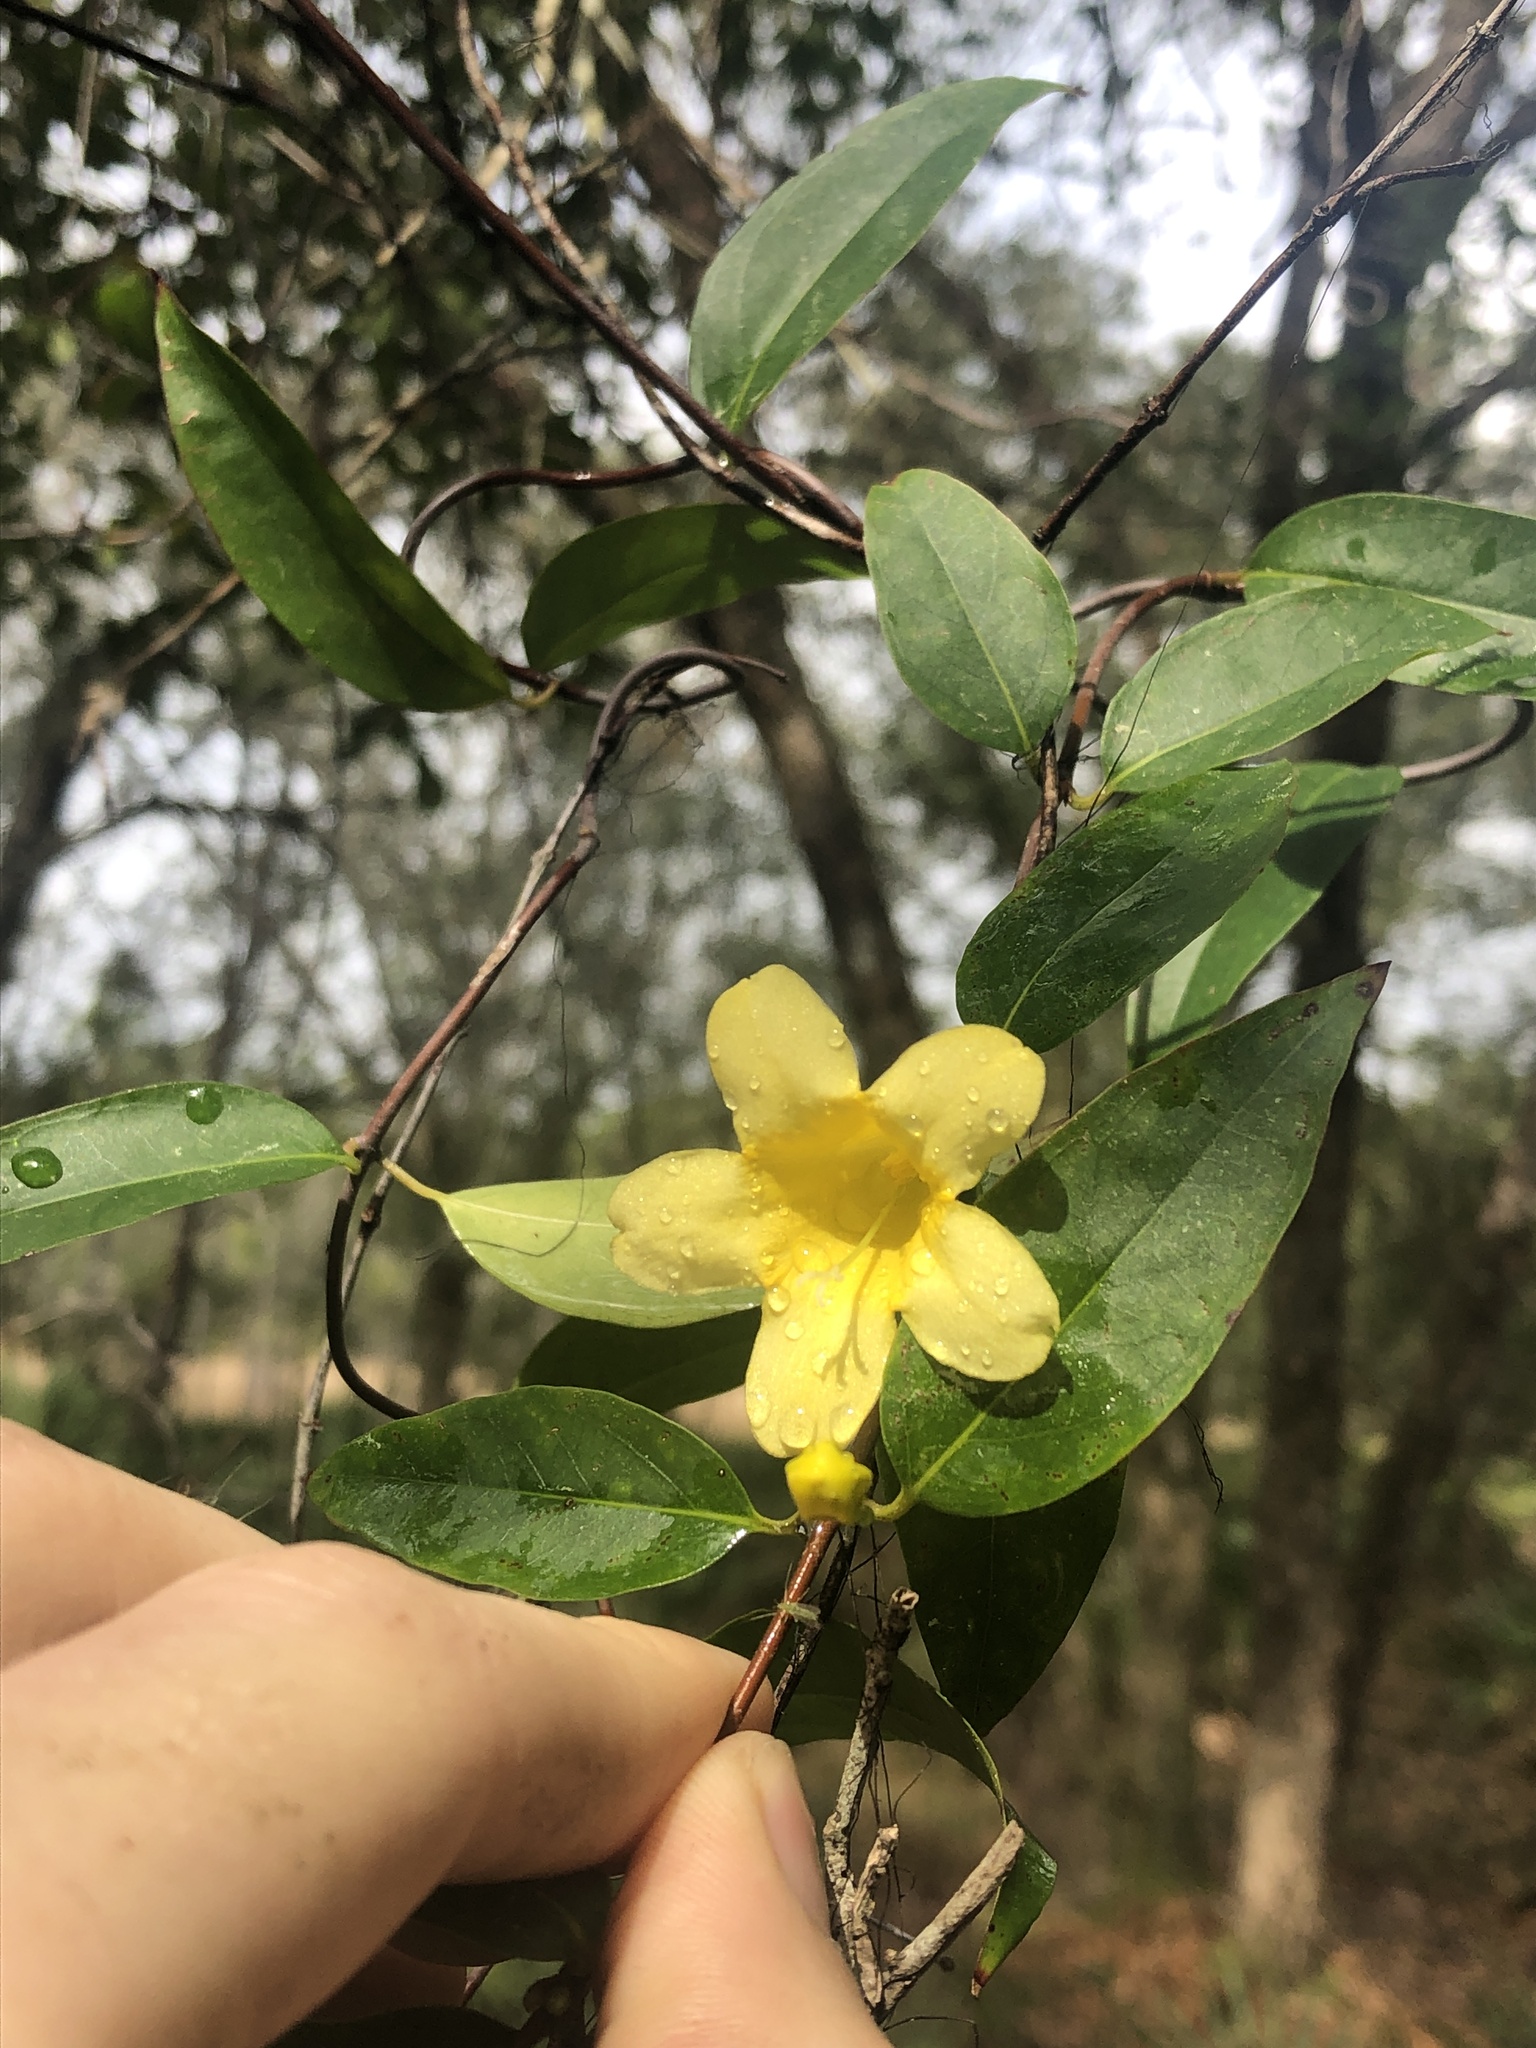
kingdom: Plantae
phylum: Tracheophyta
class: Magnoliopsida
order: Gentianales
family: Gelsemiaceae
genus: Gelsemium
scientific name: Gelsemium sempervirens
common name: Carolina-jasmine
